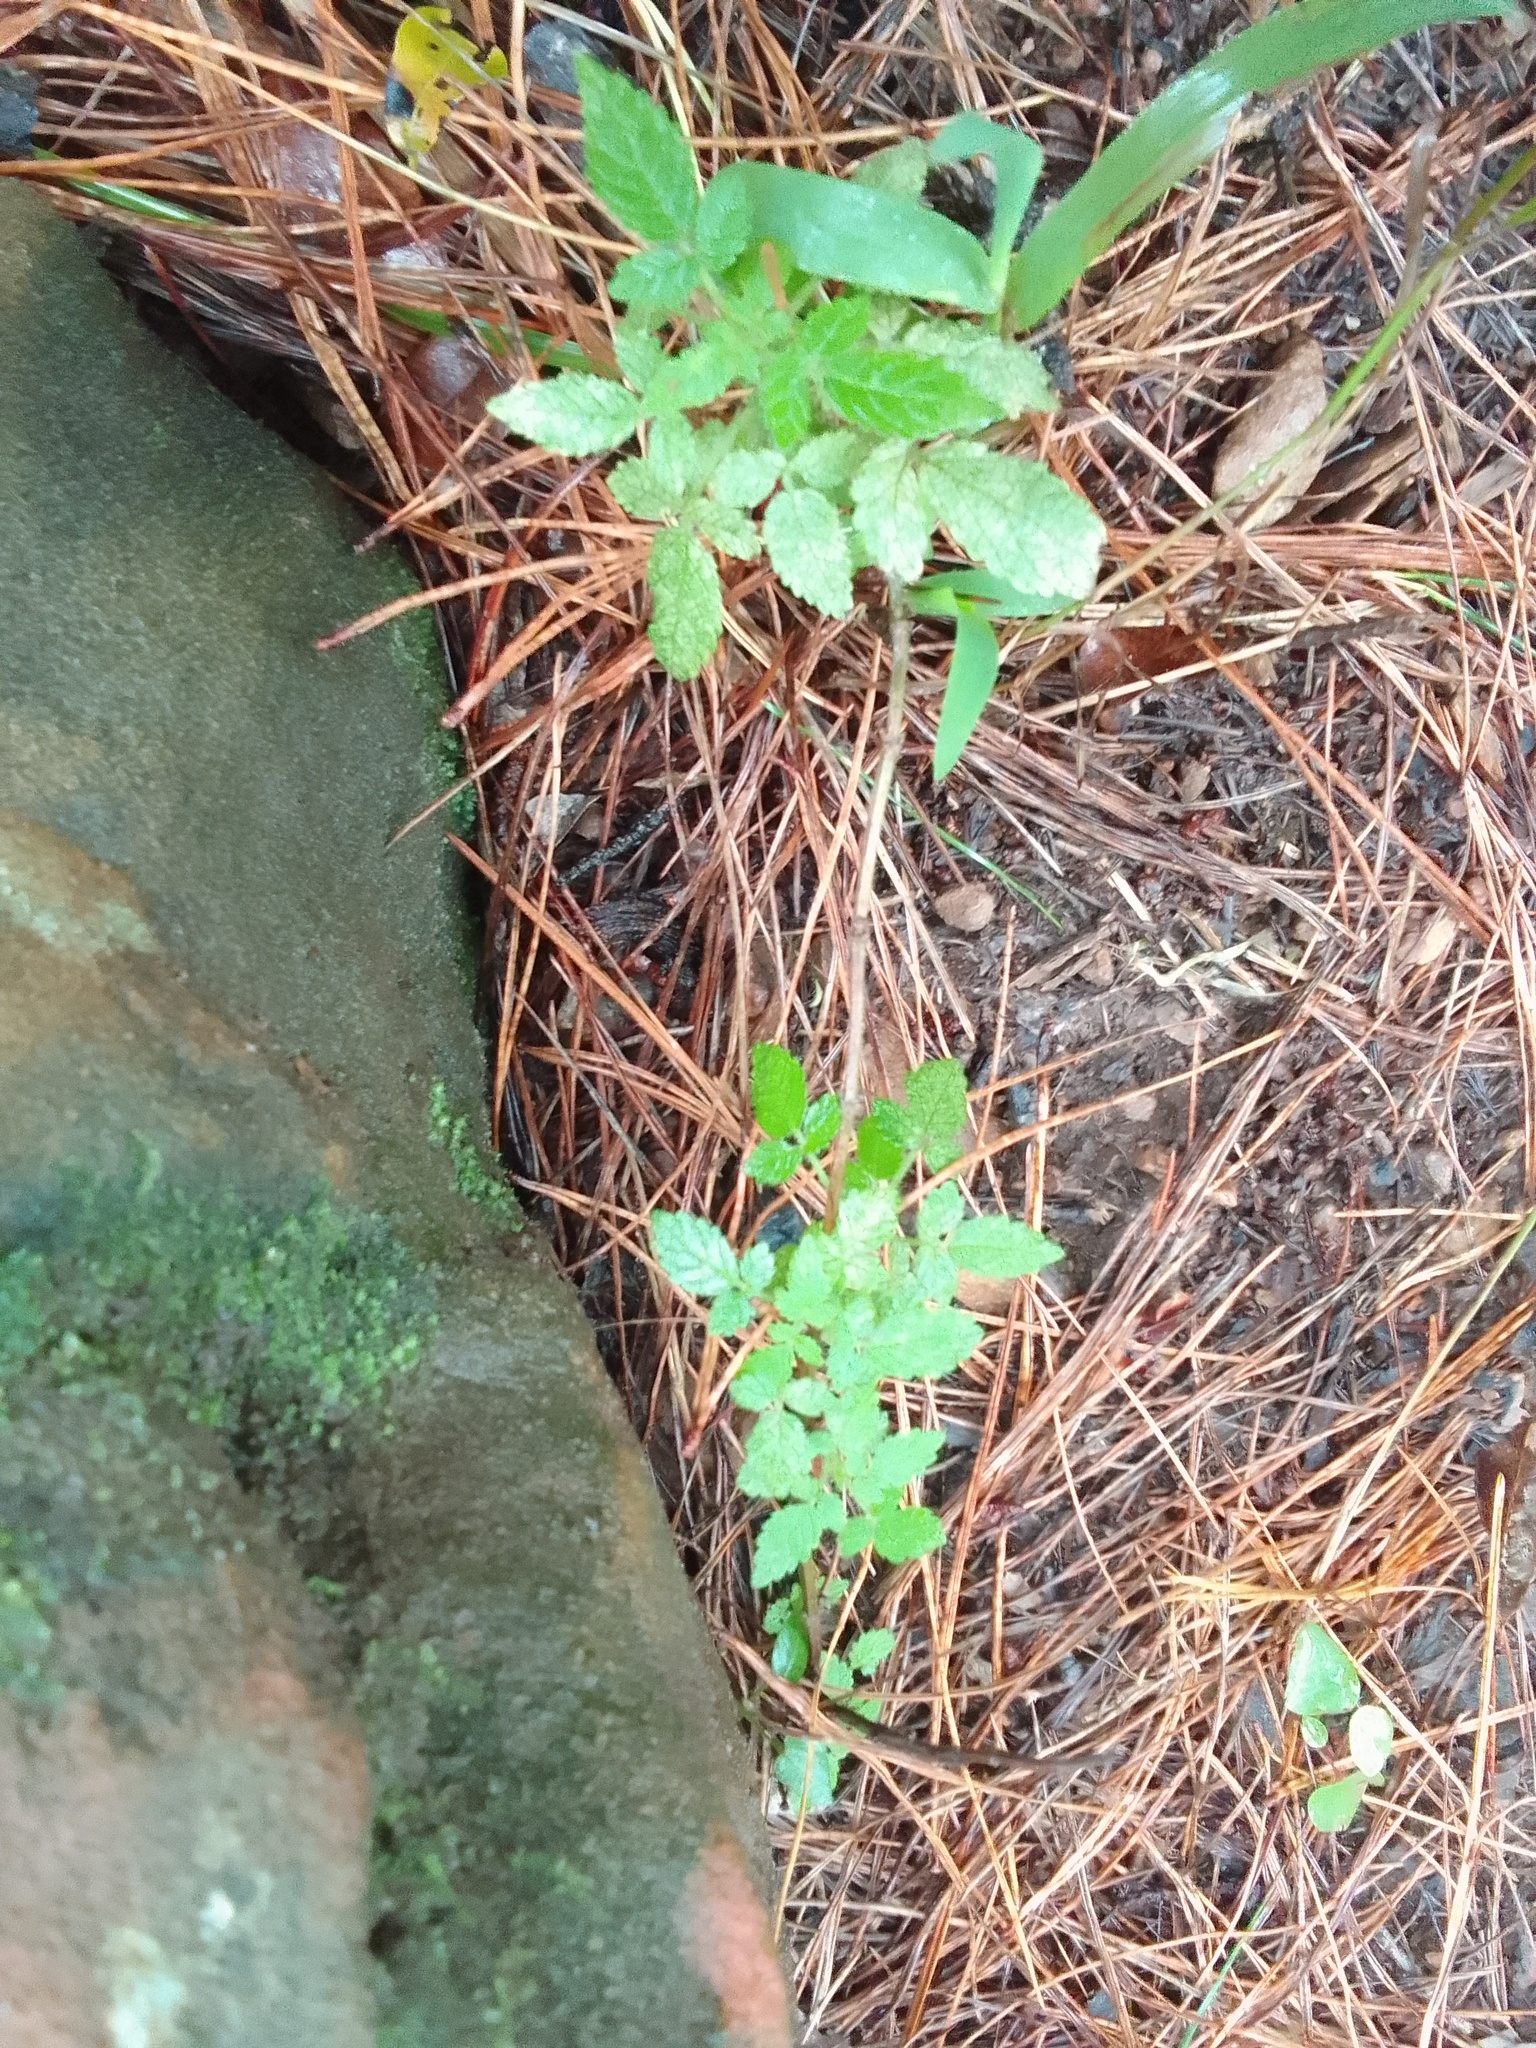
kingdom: Plantae
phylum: Tracheophyta
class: Magnoliopsida
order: Lamiales
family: Lamiaceae
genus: Cedronella
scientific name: Cedronella canariensis
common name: Canary islands balm
